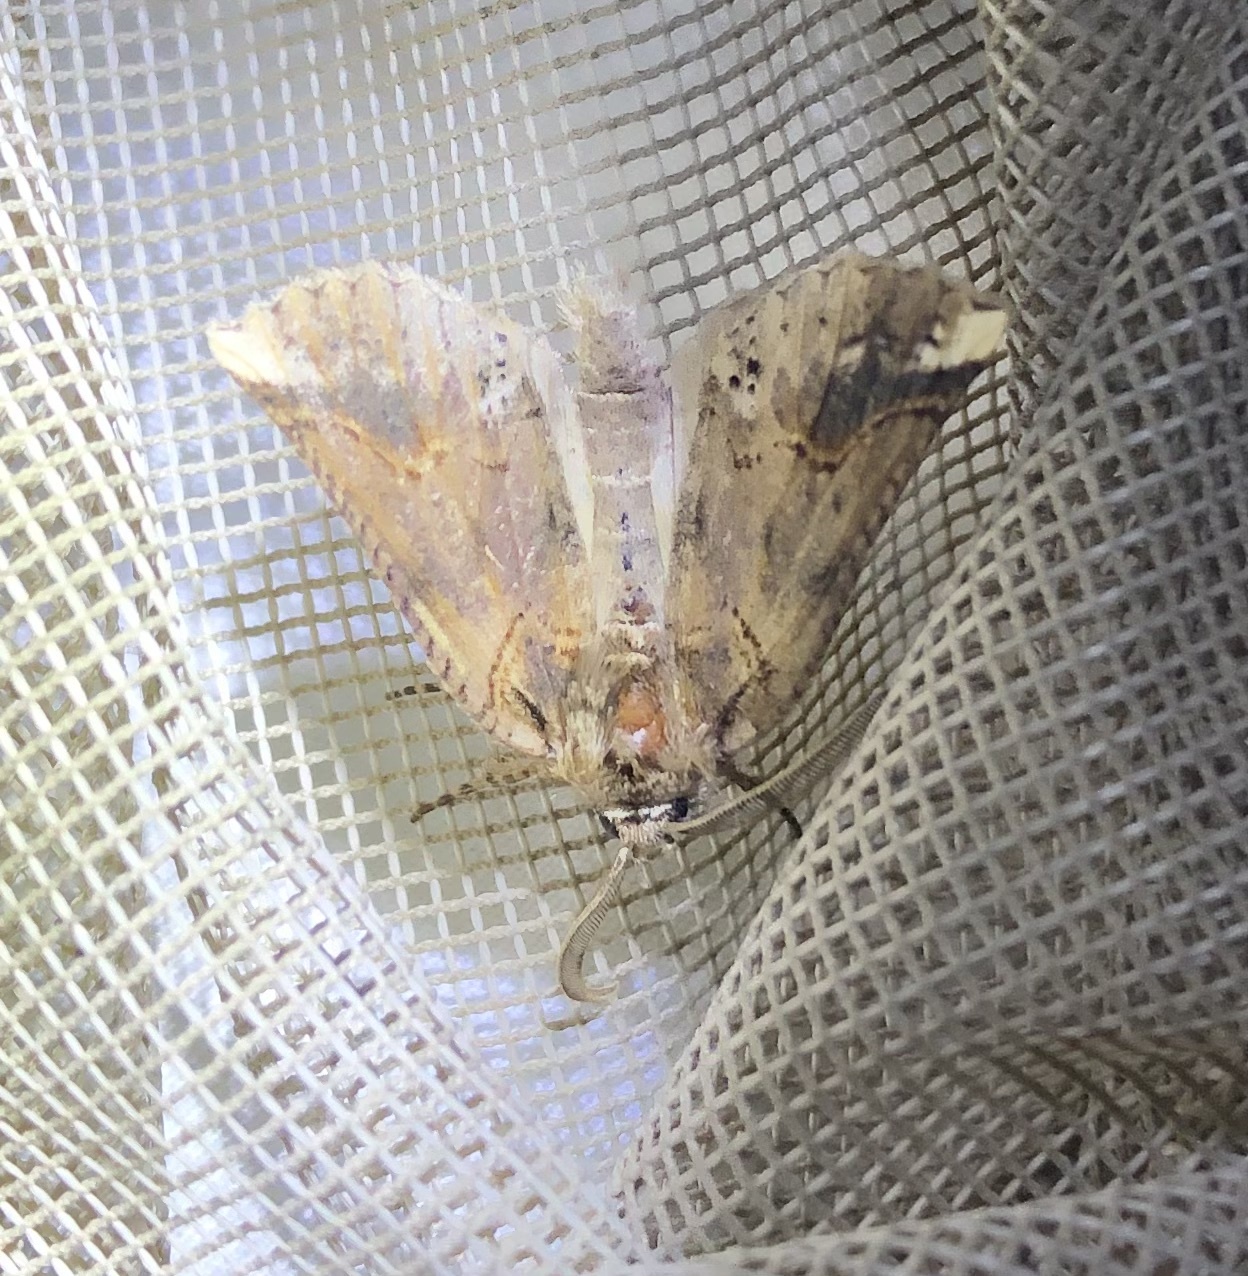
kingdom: Animalia
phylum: Arthropoda
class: Insecta
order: Lepidoptera
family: Geometridae
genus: Declana
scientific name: Declana
